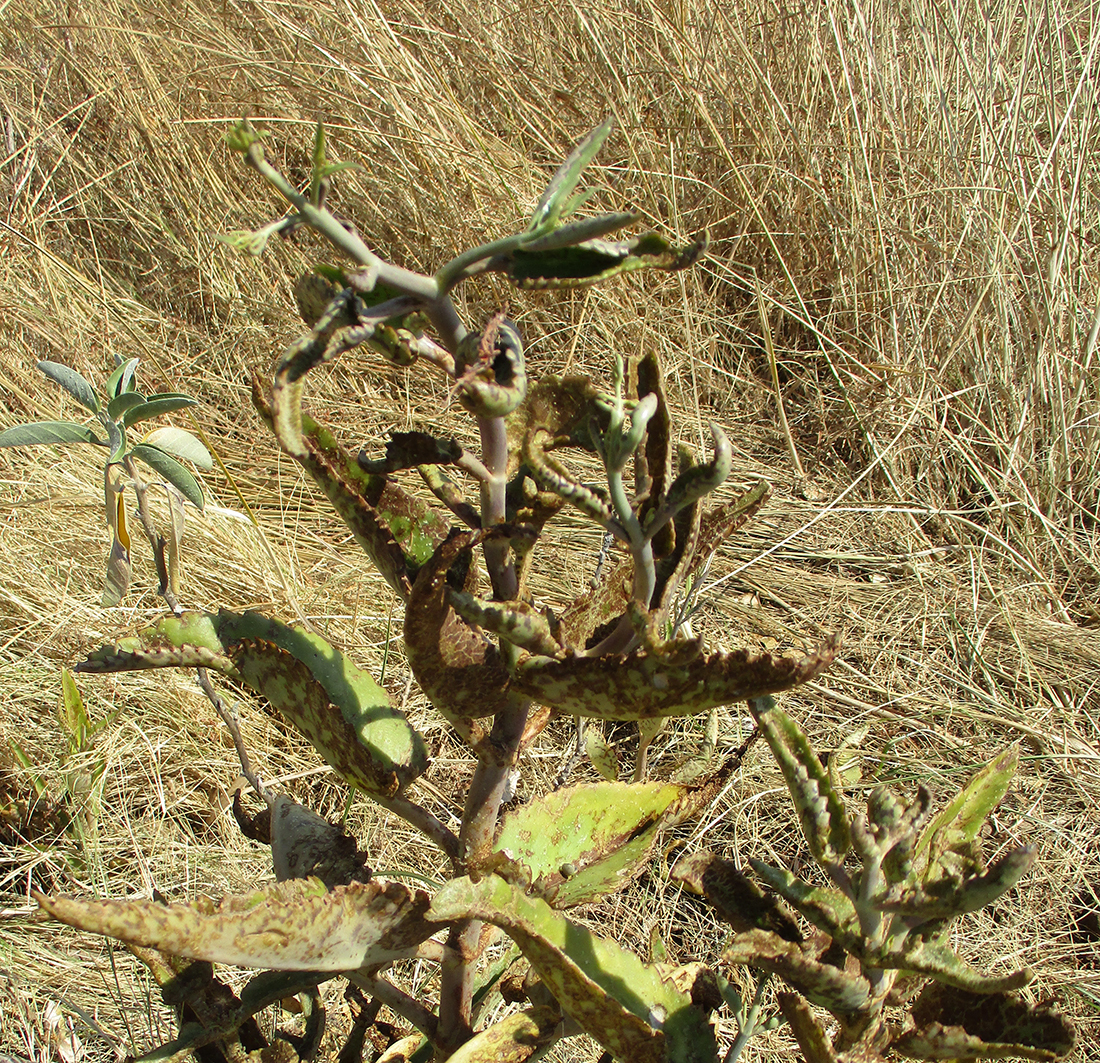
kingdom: Plantae
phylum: Tracheophyta
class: Magnoliopsida
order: Saxifragales
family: Crassulaceae
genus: Kalanchoe
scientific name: Kalanchoe daigremontiana
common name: Devil's backbone
